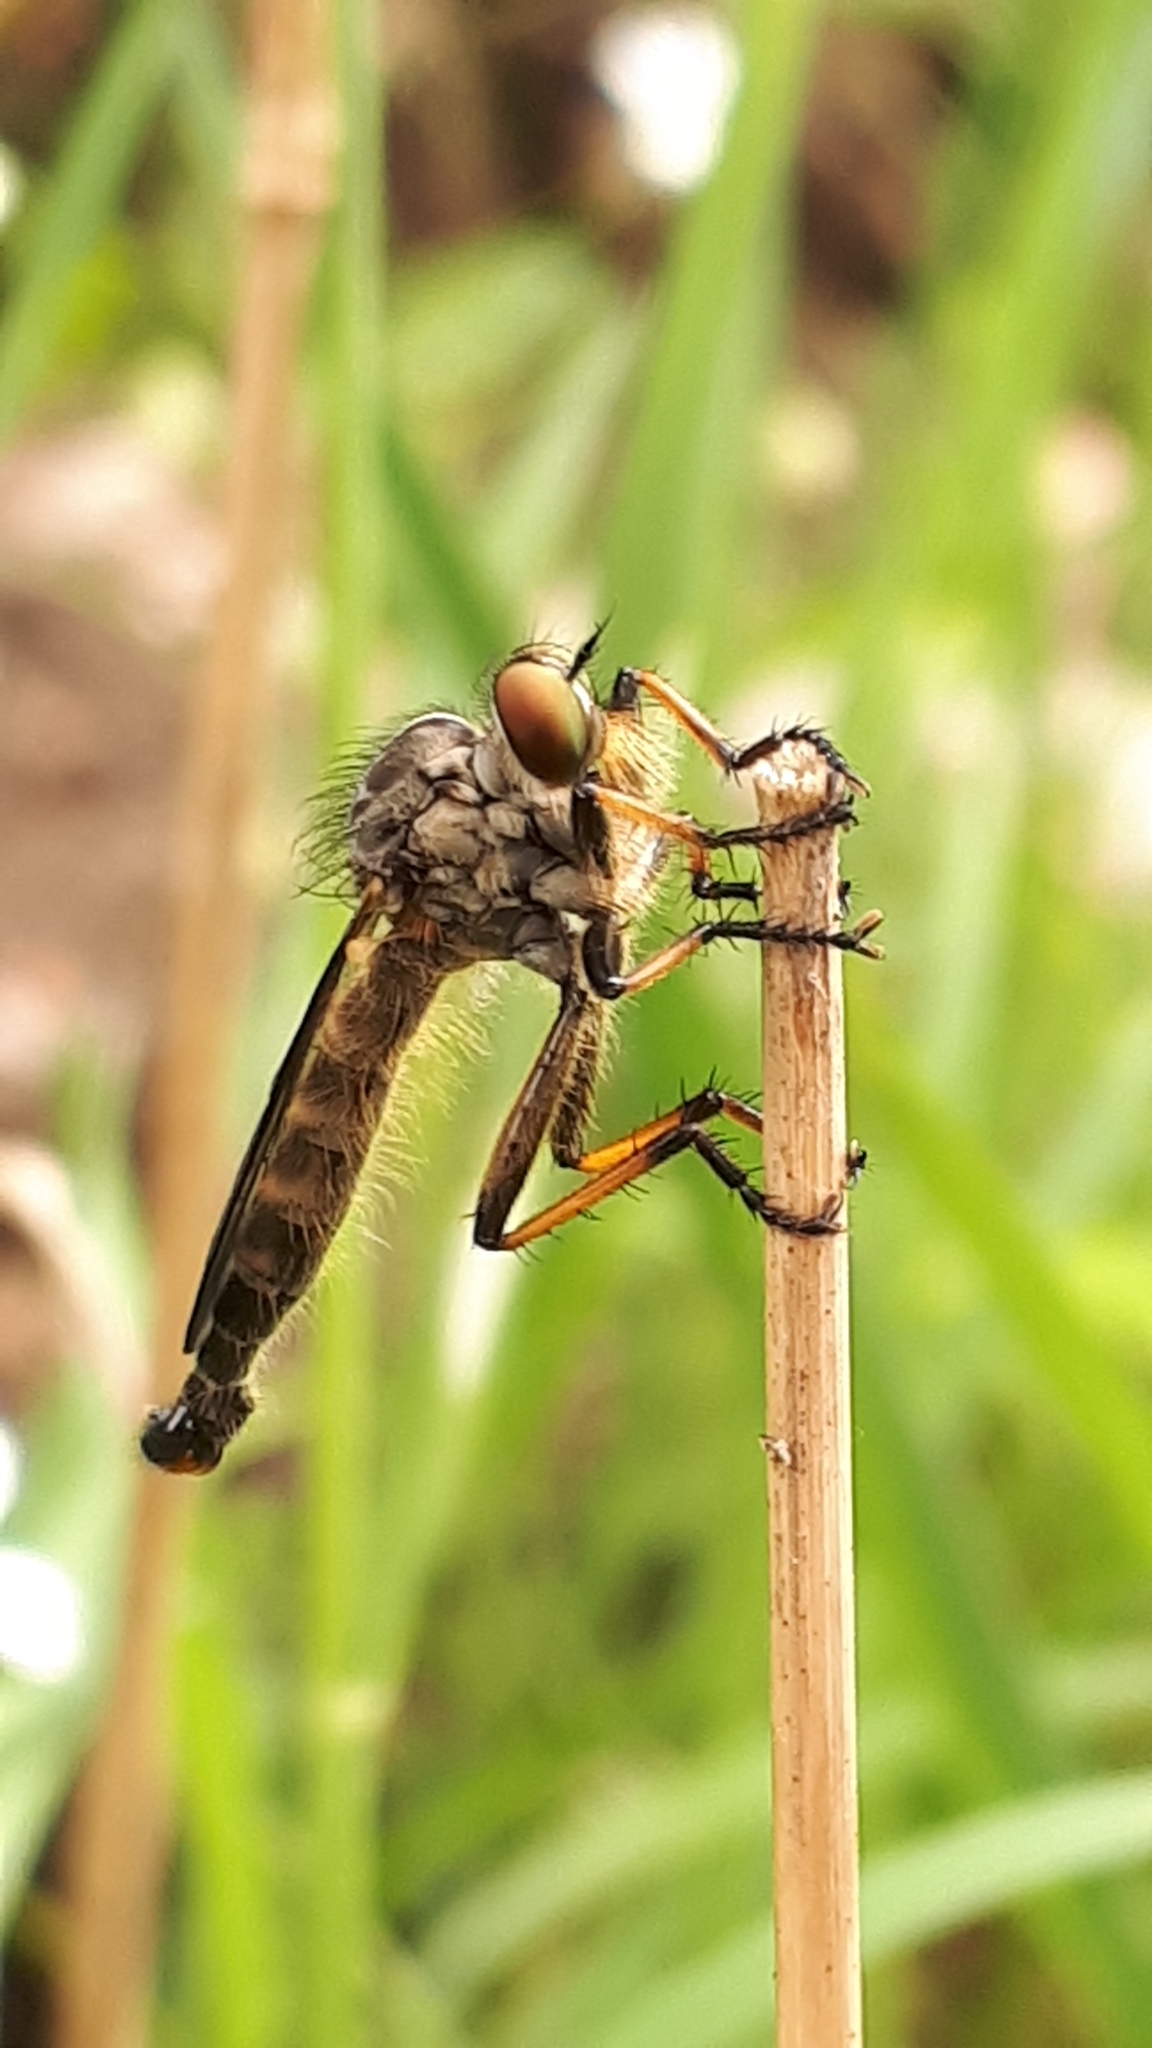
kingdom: Animalia
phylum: Arthropoda
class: Insecta
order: Diptera
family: Asilidae
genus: Neoitamus
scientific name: Neoitamus cyanurus
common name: Common awl robberfly
